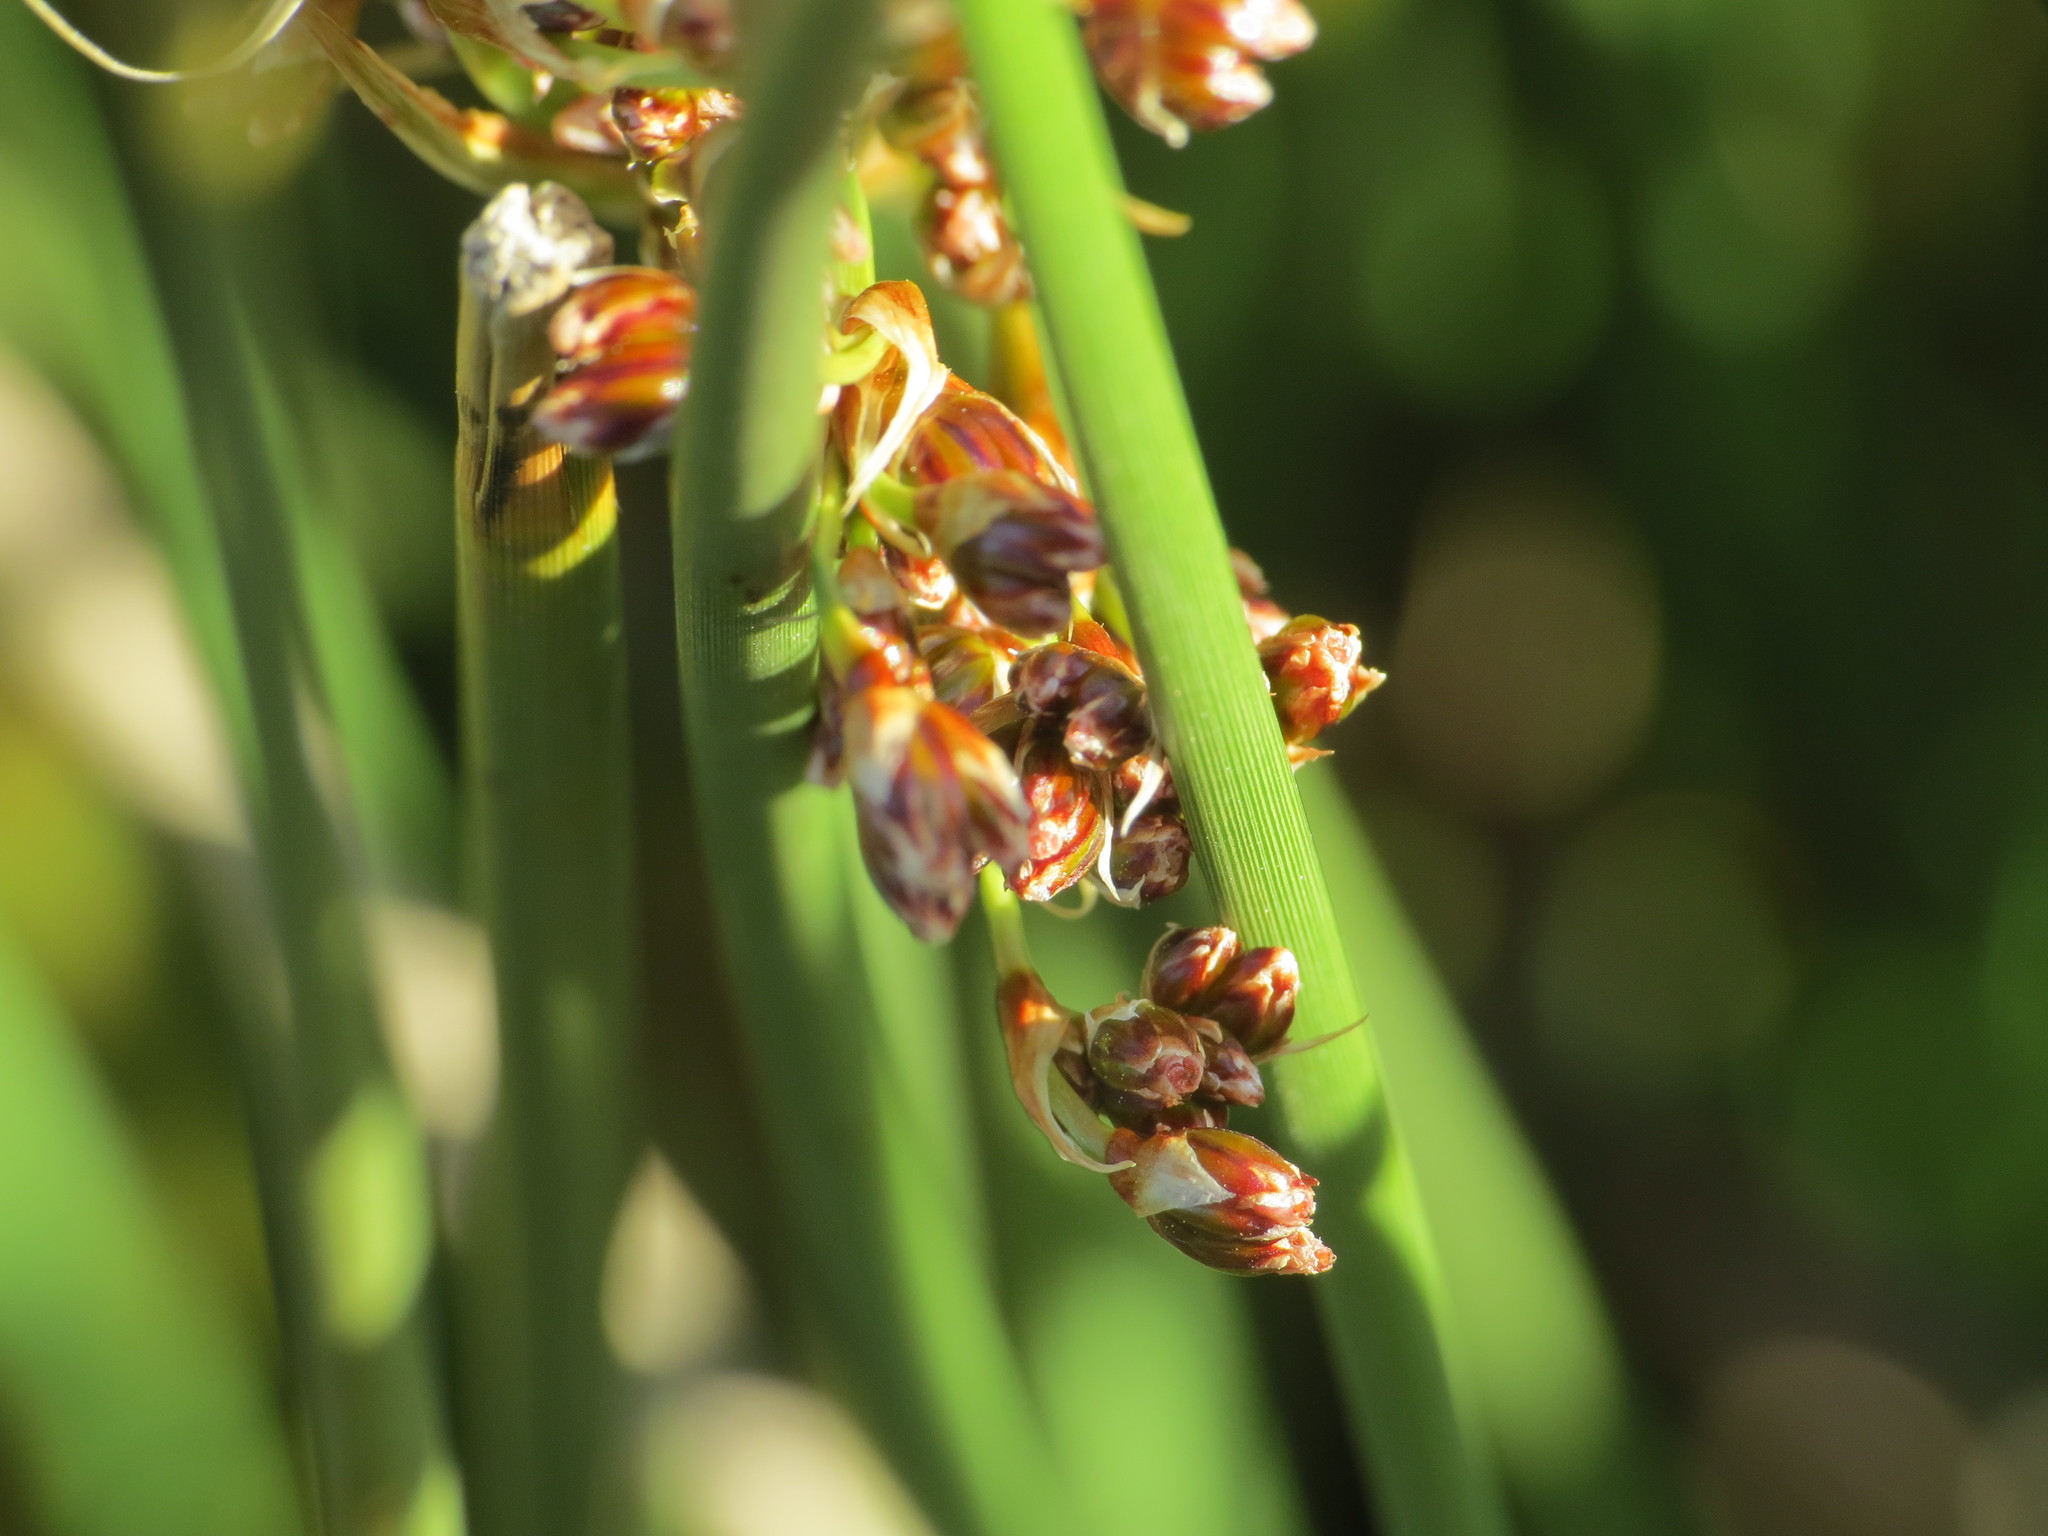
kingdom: Plantae
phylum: Tracheophyta
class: Liliopsida
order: Poales
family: Juncaceae
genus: Juncus
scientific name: Juncus acutus
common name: Sharp rush
